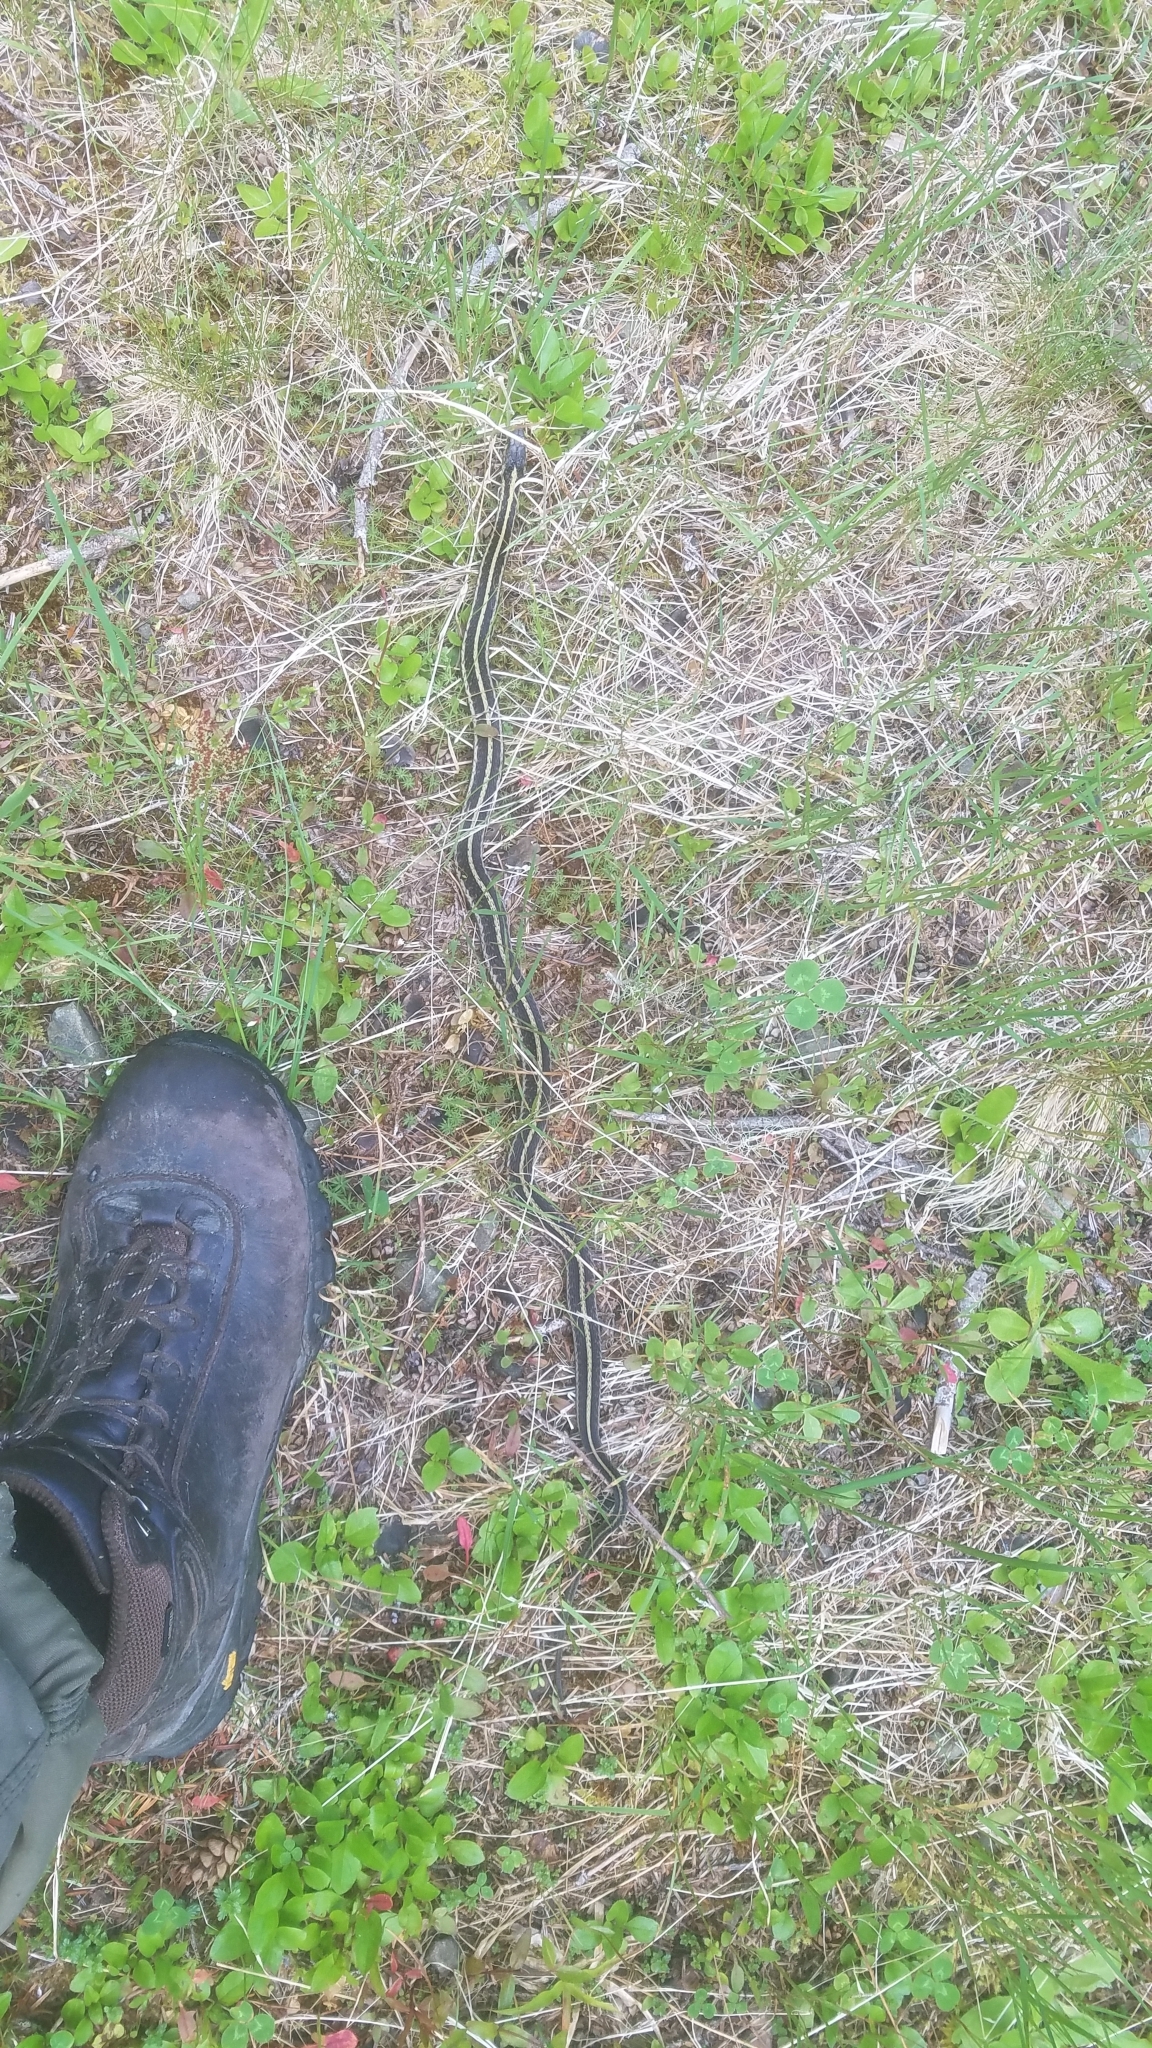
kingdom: Animalia
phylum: Chordata
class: Squamata
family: Colubridae
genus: Thamnophis
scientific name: Thamnophis sirtalis
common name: Common garter snake
